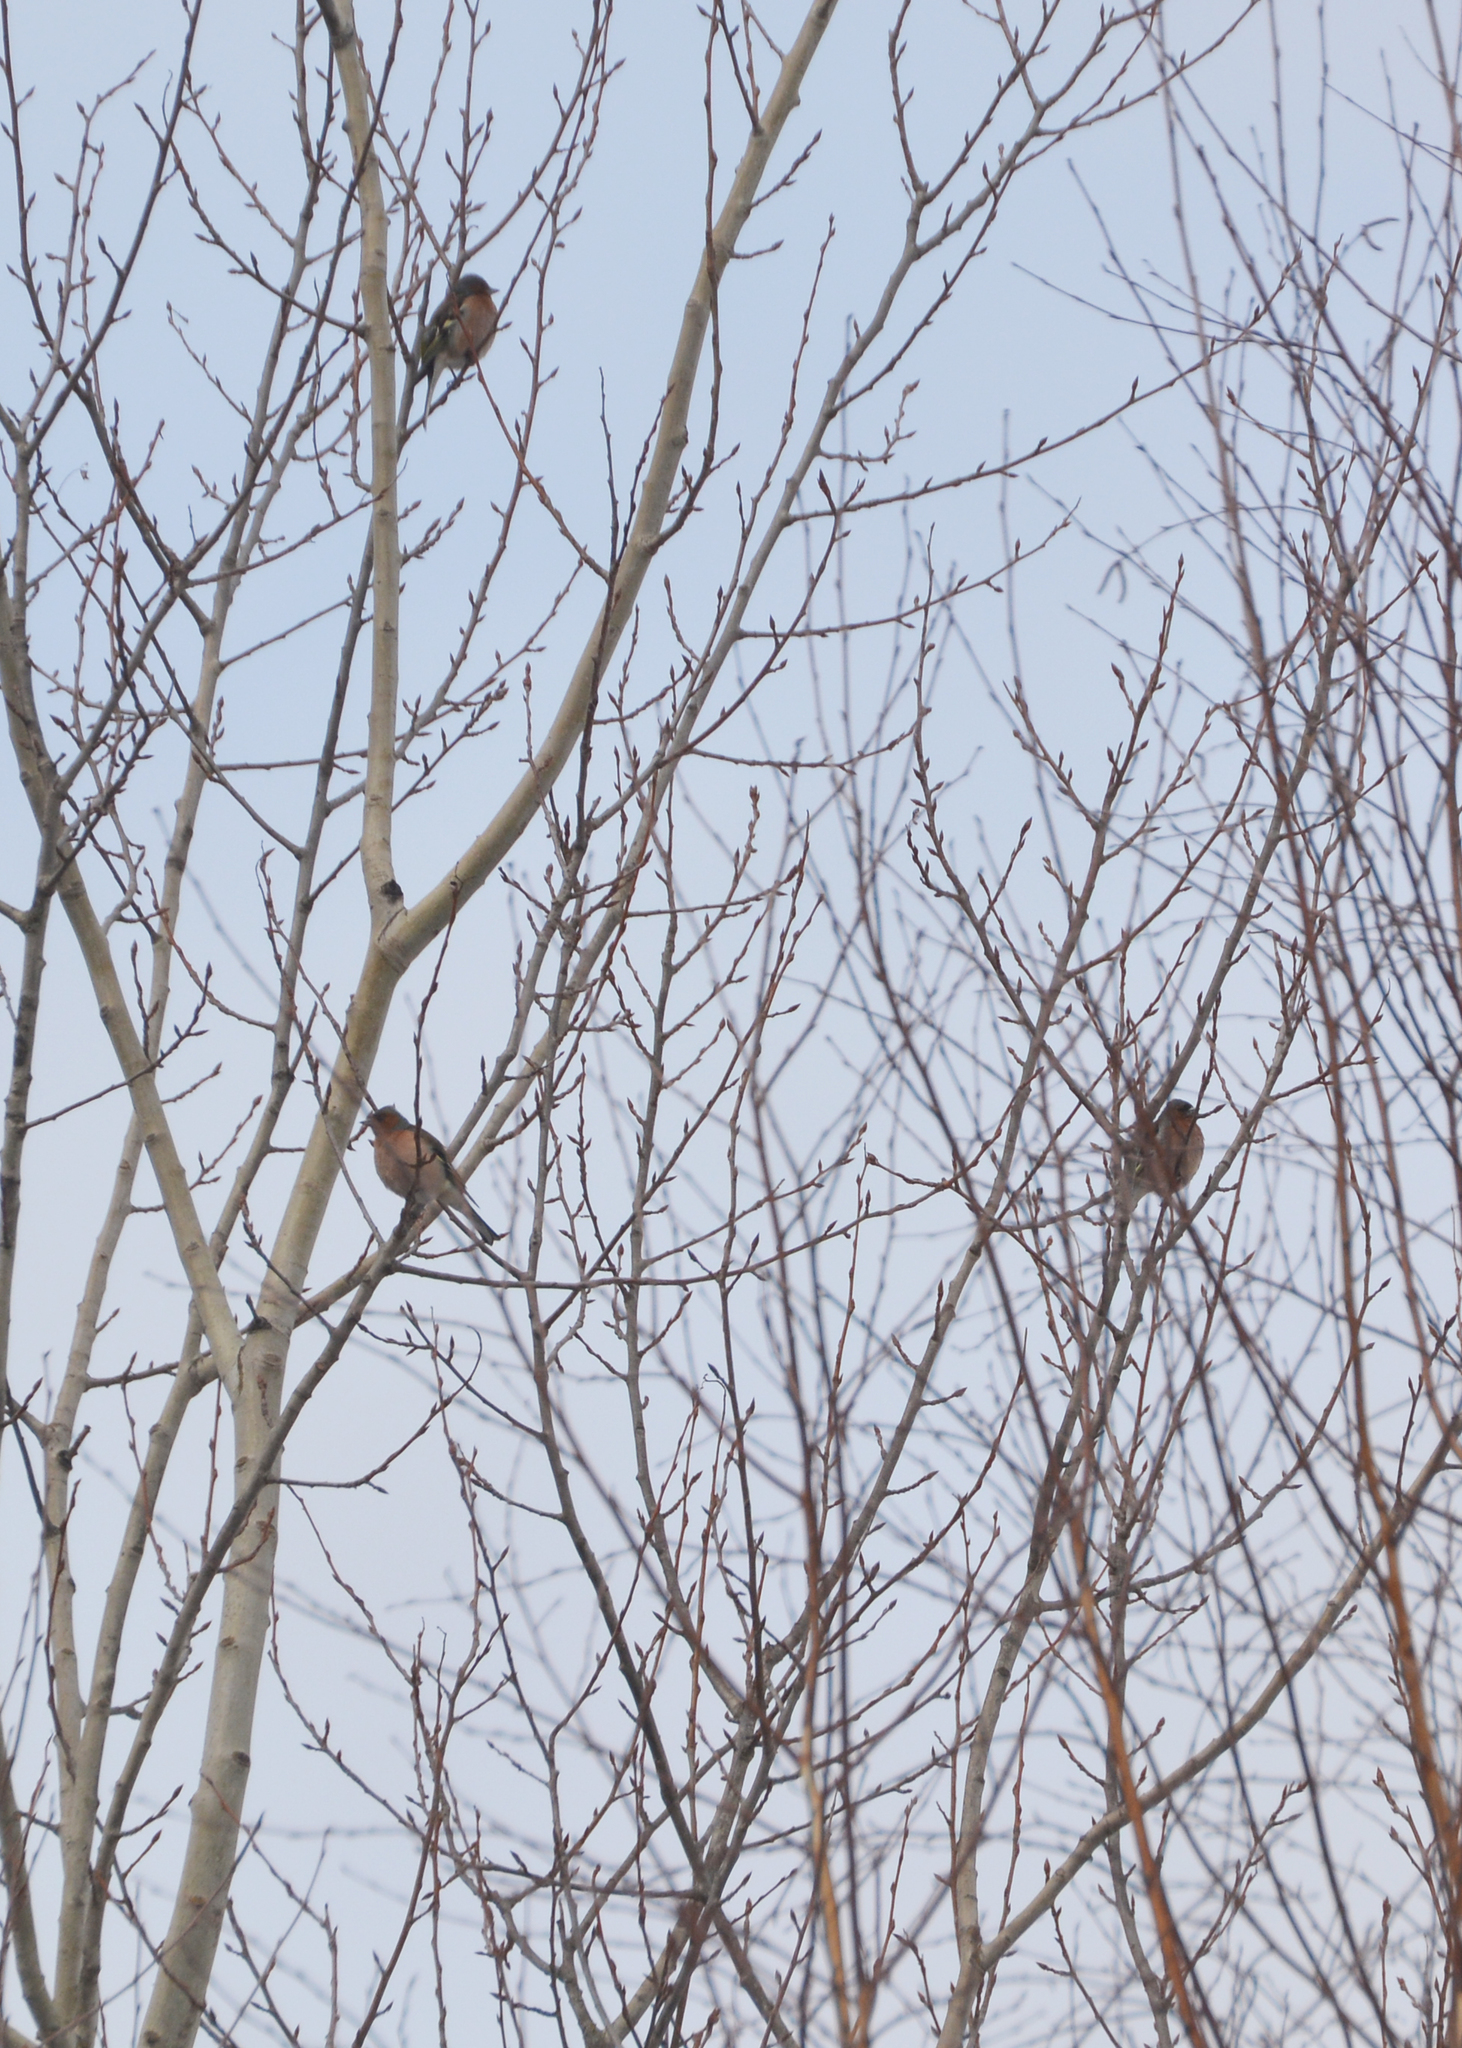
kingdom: Animalia
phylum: Chordata
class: Aves
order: Passeriformes
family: Fringillidae
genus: Fringilla
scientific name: Fringilla coelebs
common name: Common chaffinch
